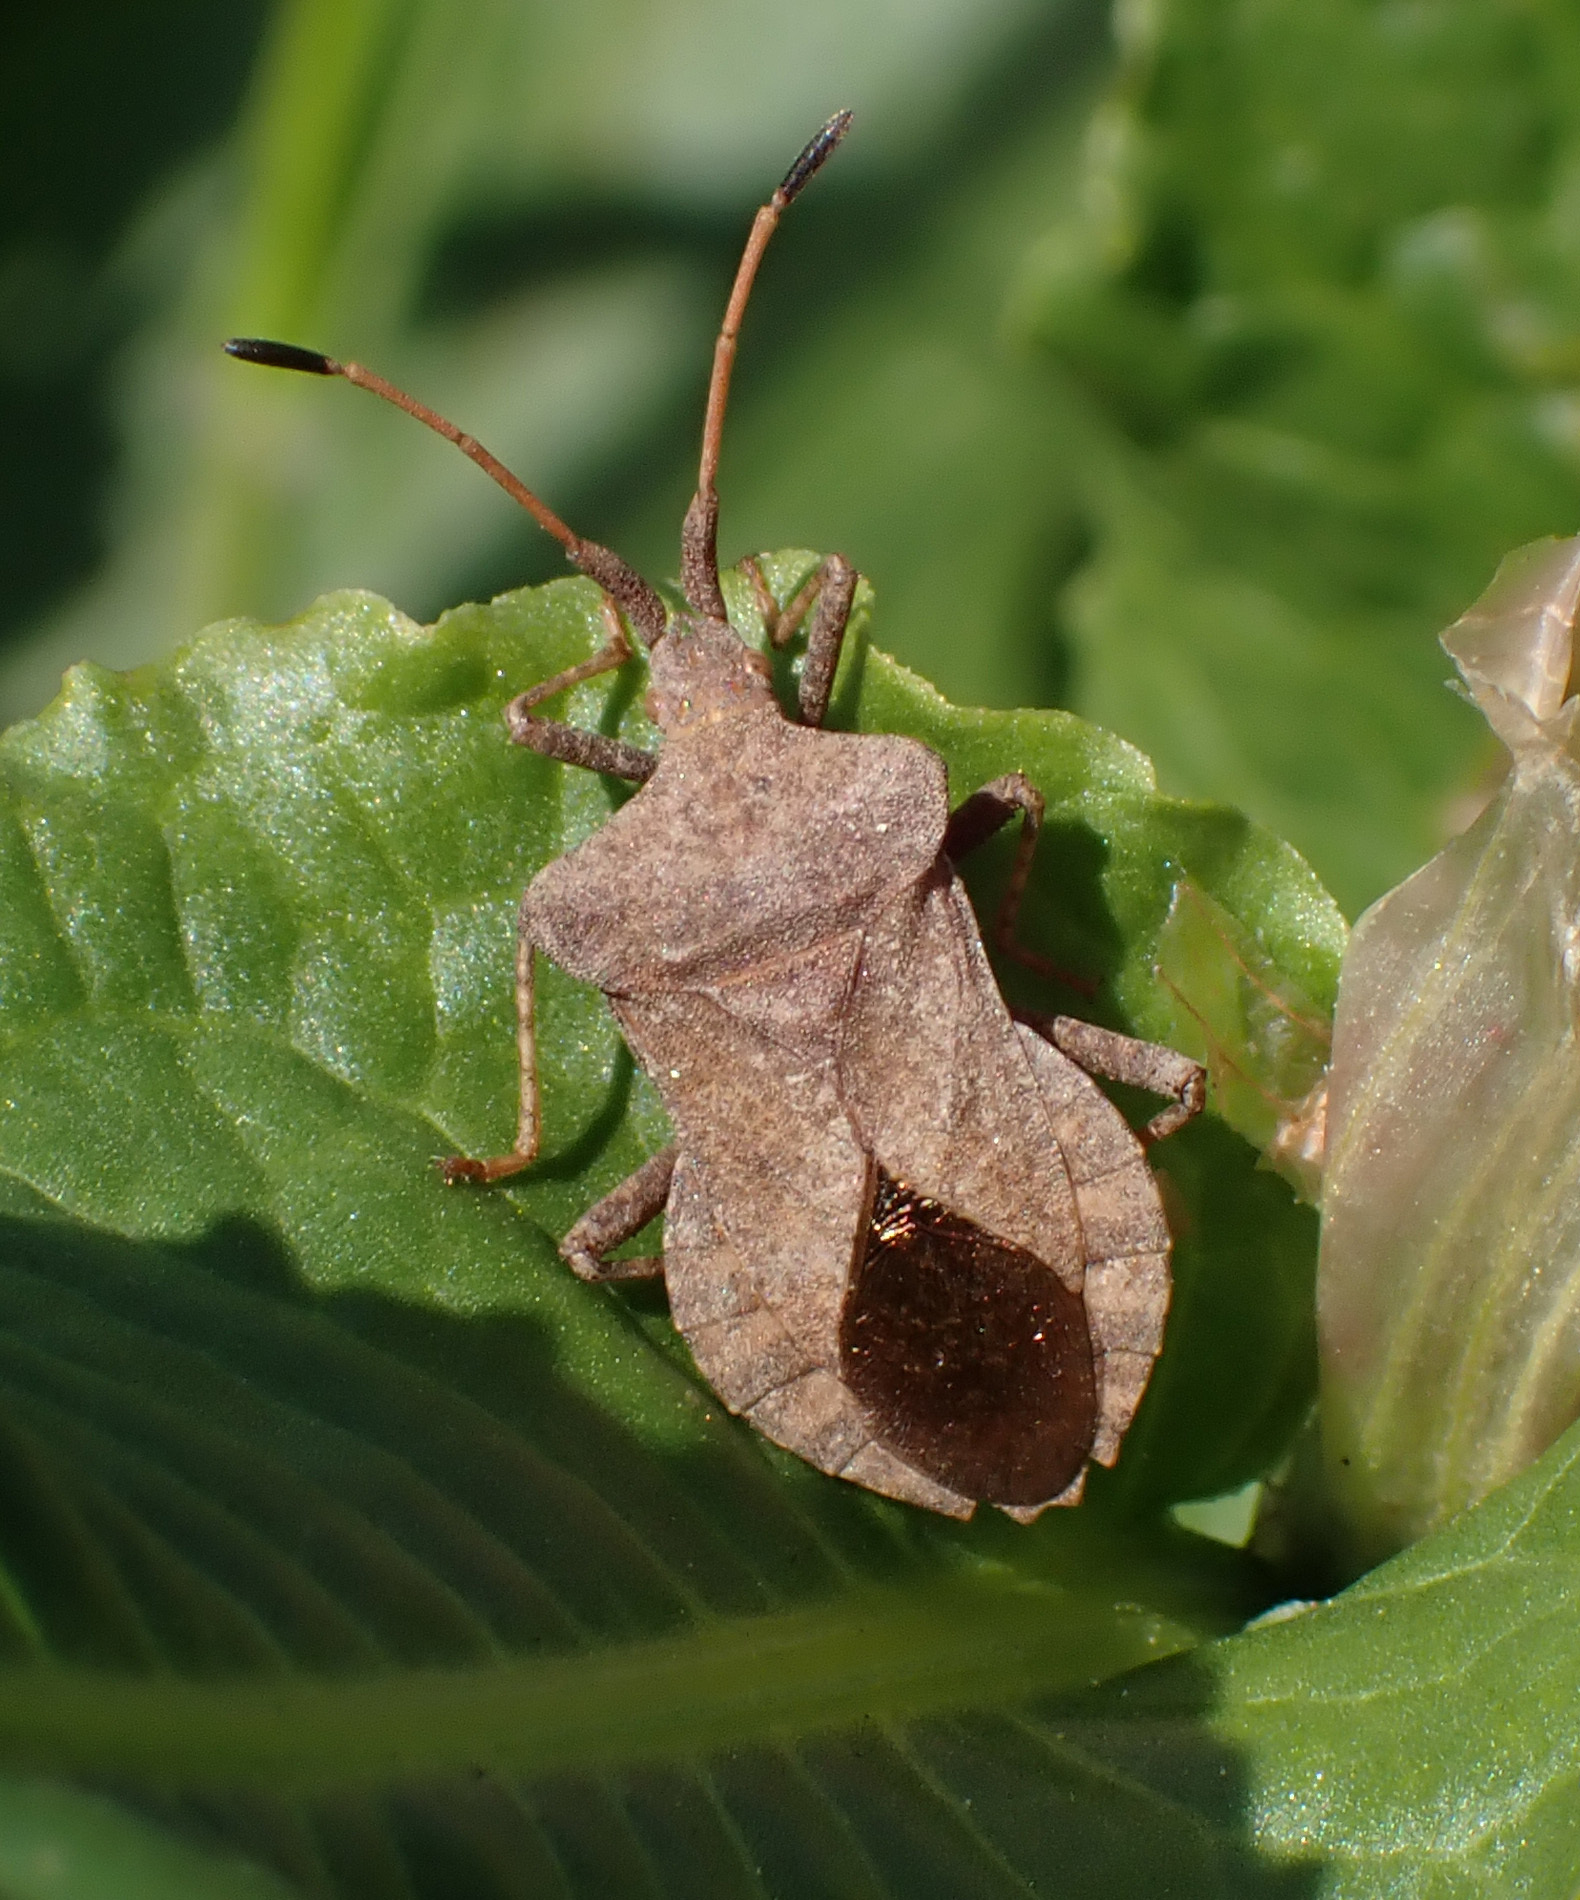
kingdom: Animalia
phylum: Arthropoda
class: Insecta
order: Hemiptera
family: Coreidae
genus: Coreus
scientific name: Coreus marginatus
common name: Dock bug
